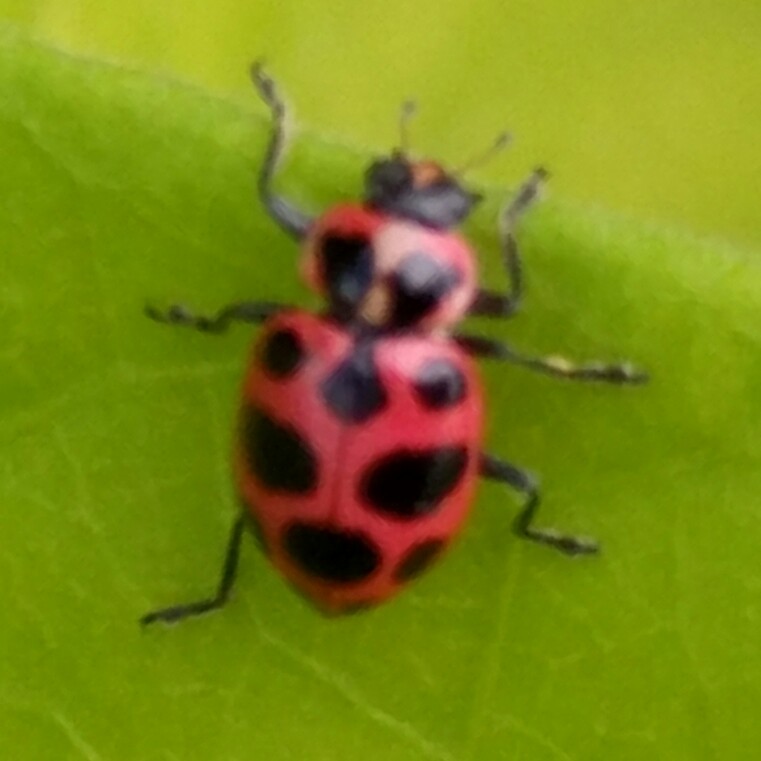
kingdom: Animalia
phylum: Arthropoda
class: Insecta
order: Coleoptera
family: Coccinellidae
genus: Coleomegilla
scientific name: Coleomegilla maculata
